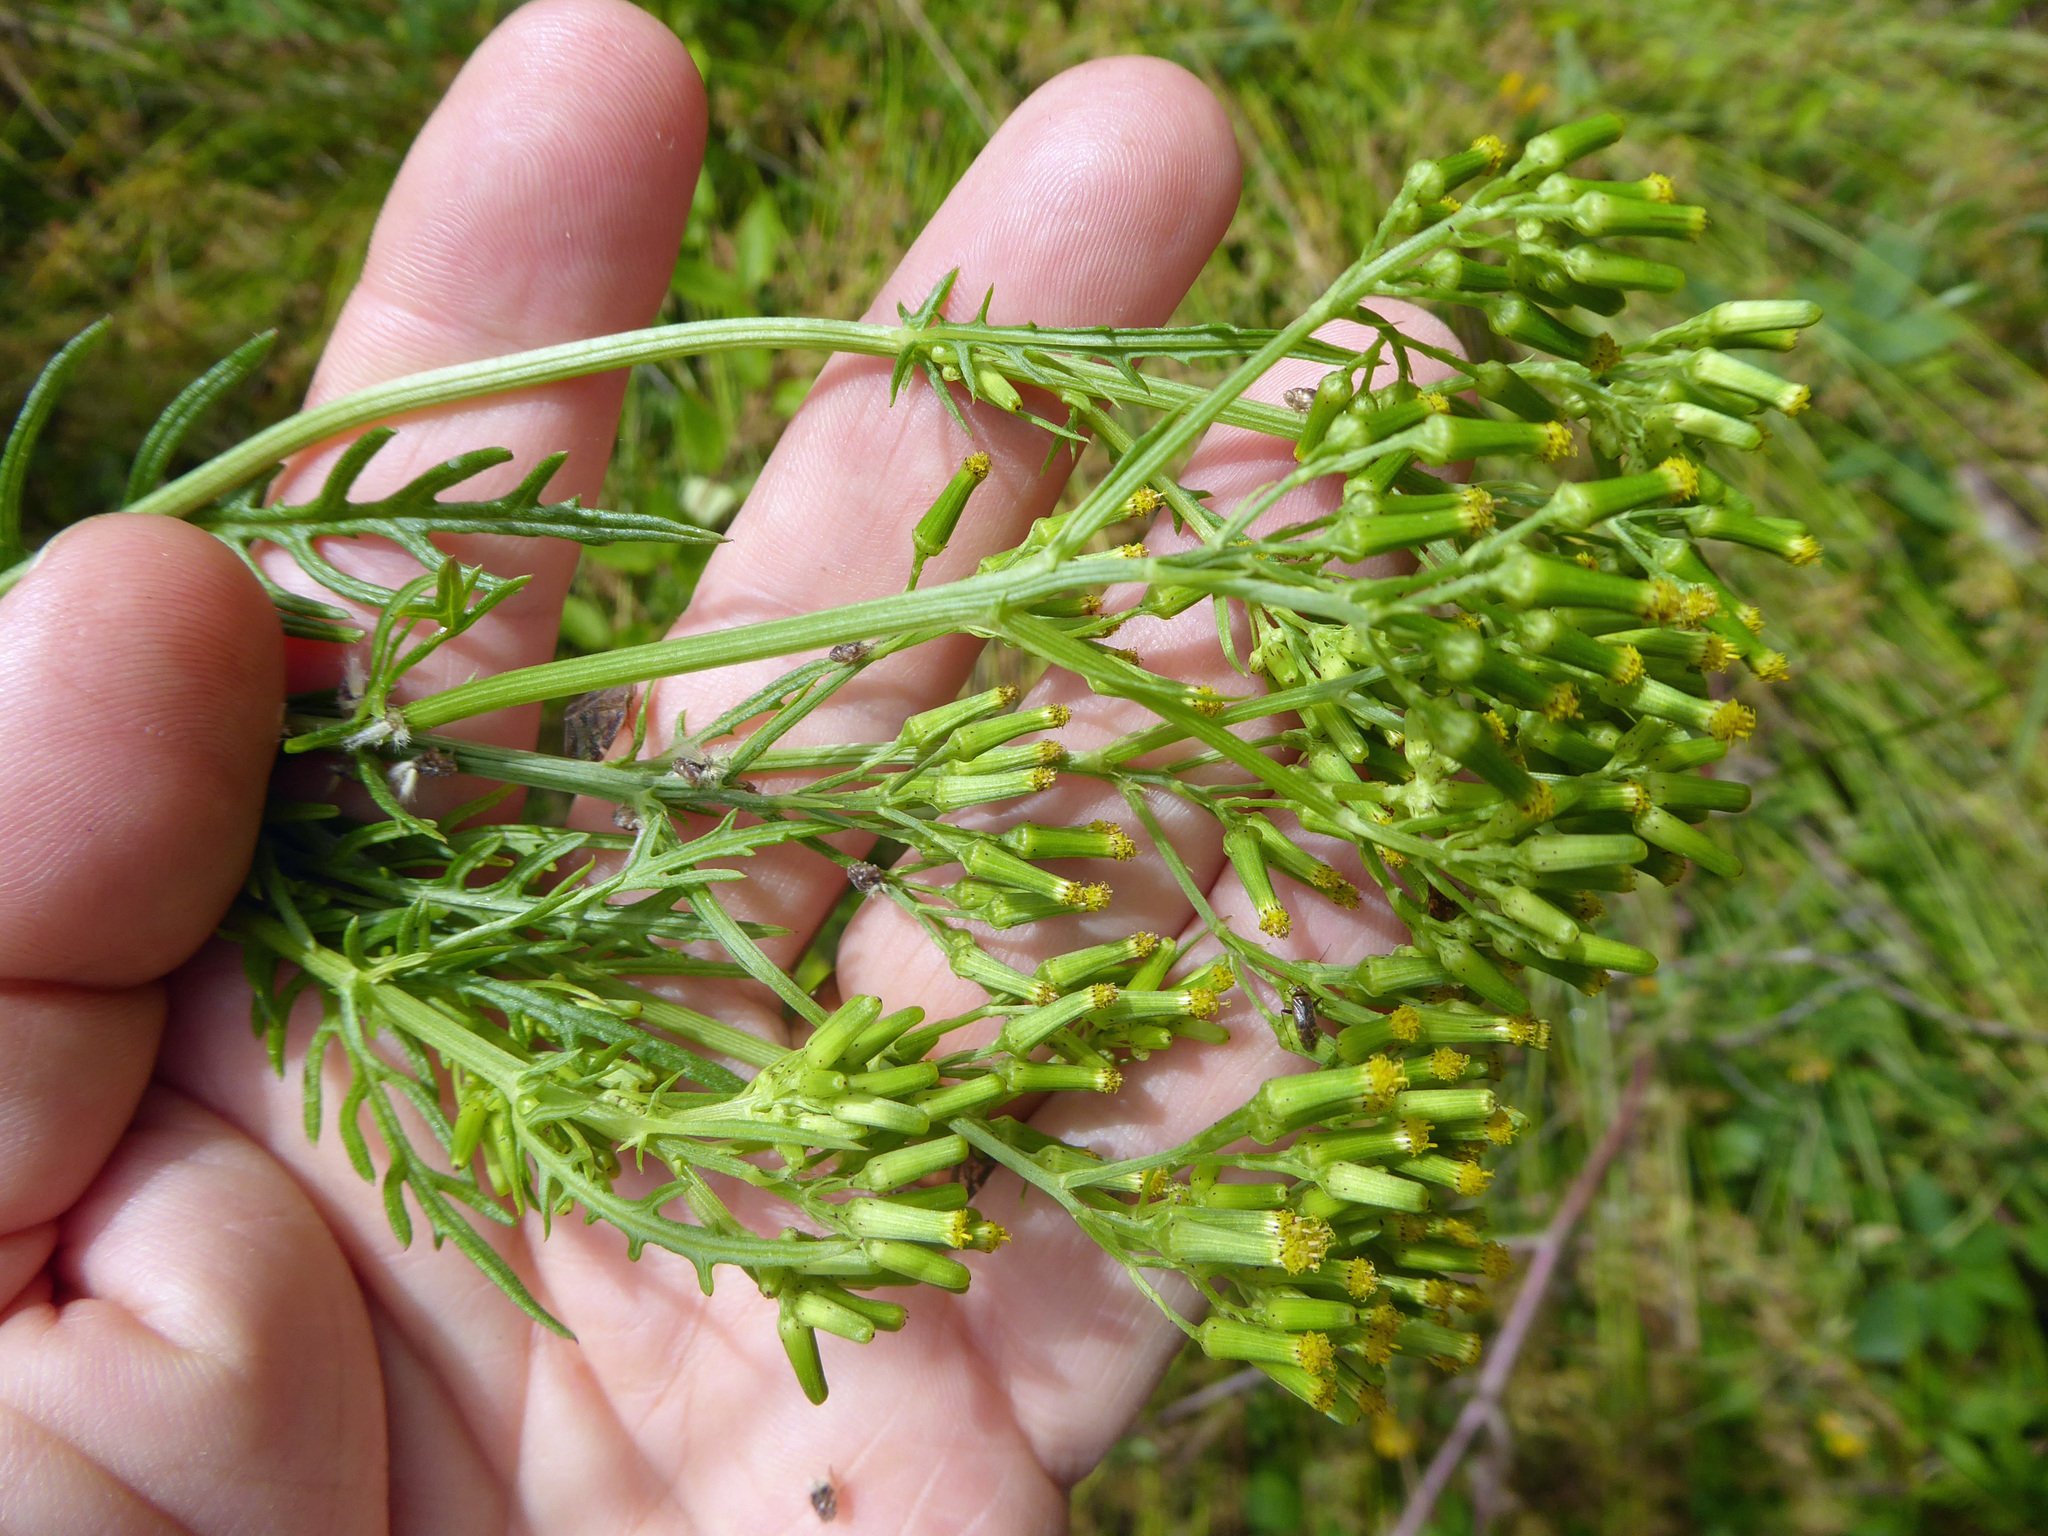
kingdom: Plantae
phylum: Tracheophyta
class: Magnoliopsida
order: Asterales
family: Asteraceae
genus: Senecio
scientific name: Senecio bipinnatisectus
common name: Australian fireweed
